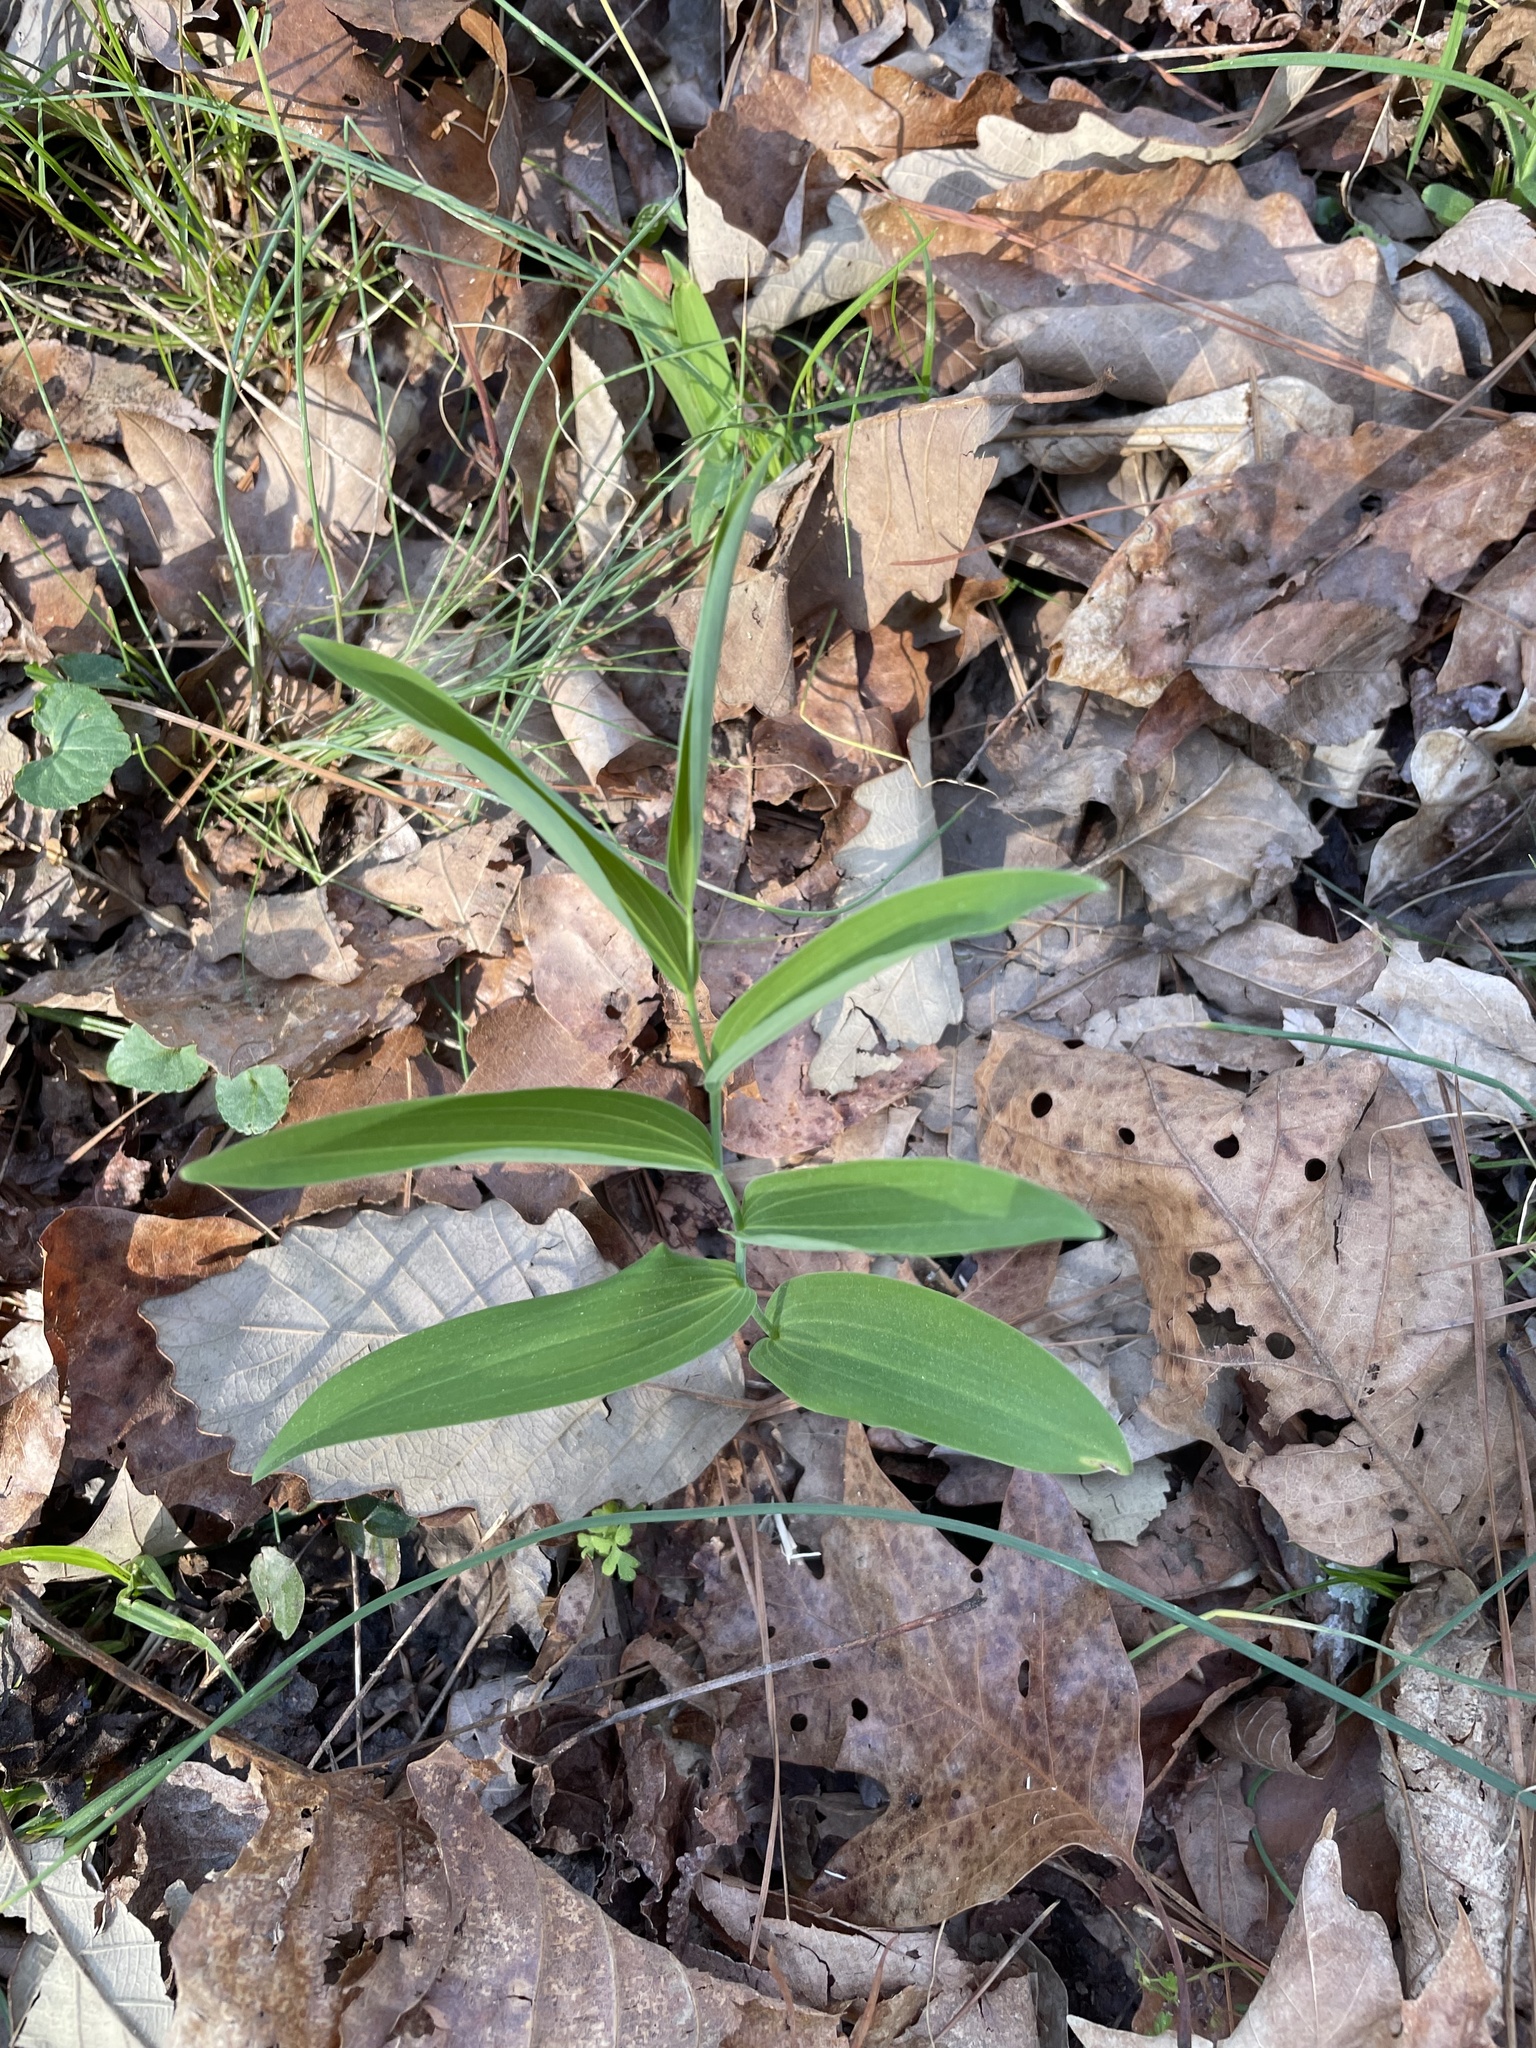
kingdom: Plantae
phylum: Tracheophyta
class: Liliopsida
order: Asparagales
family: Asparagaceae
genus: Polygonatum
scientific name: Polygonatum biflorum
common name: American solomon's-seal
